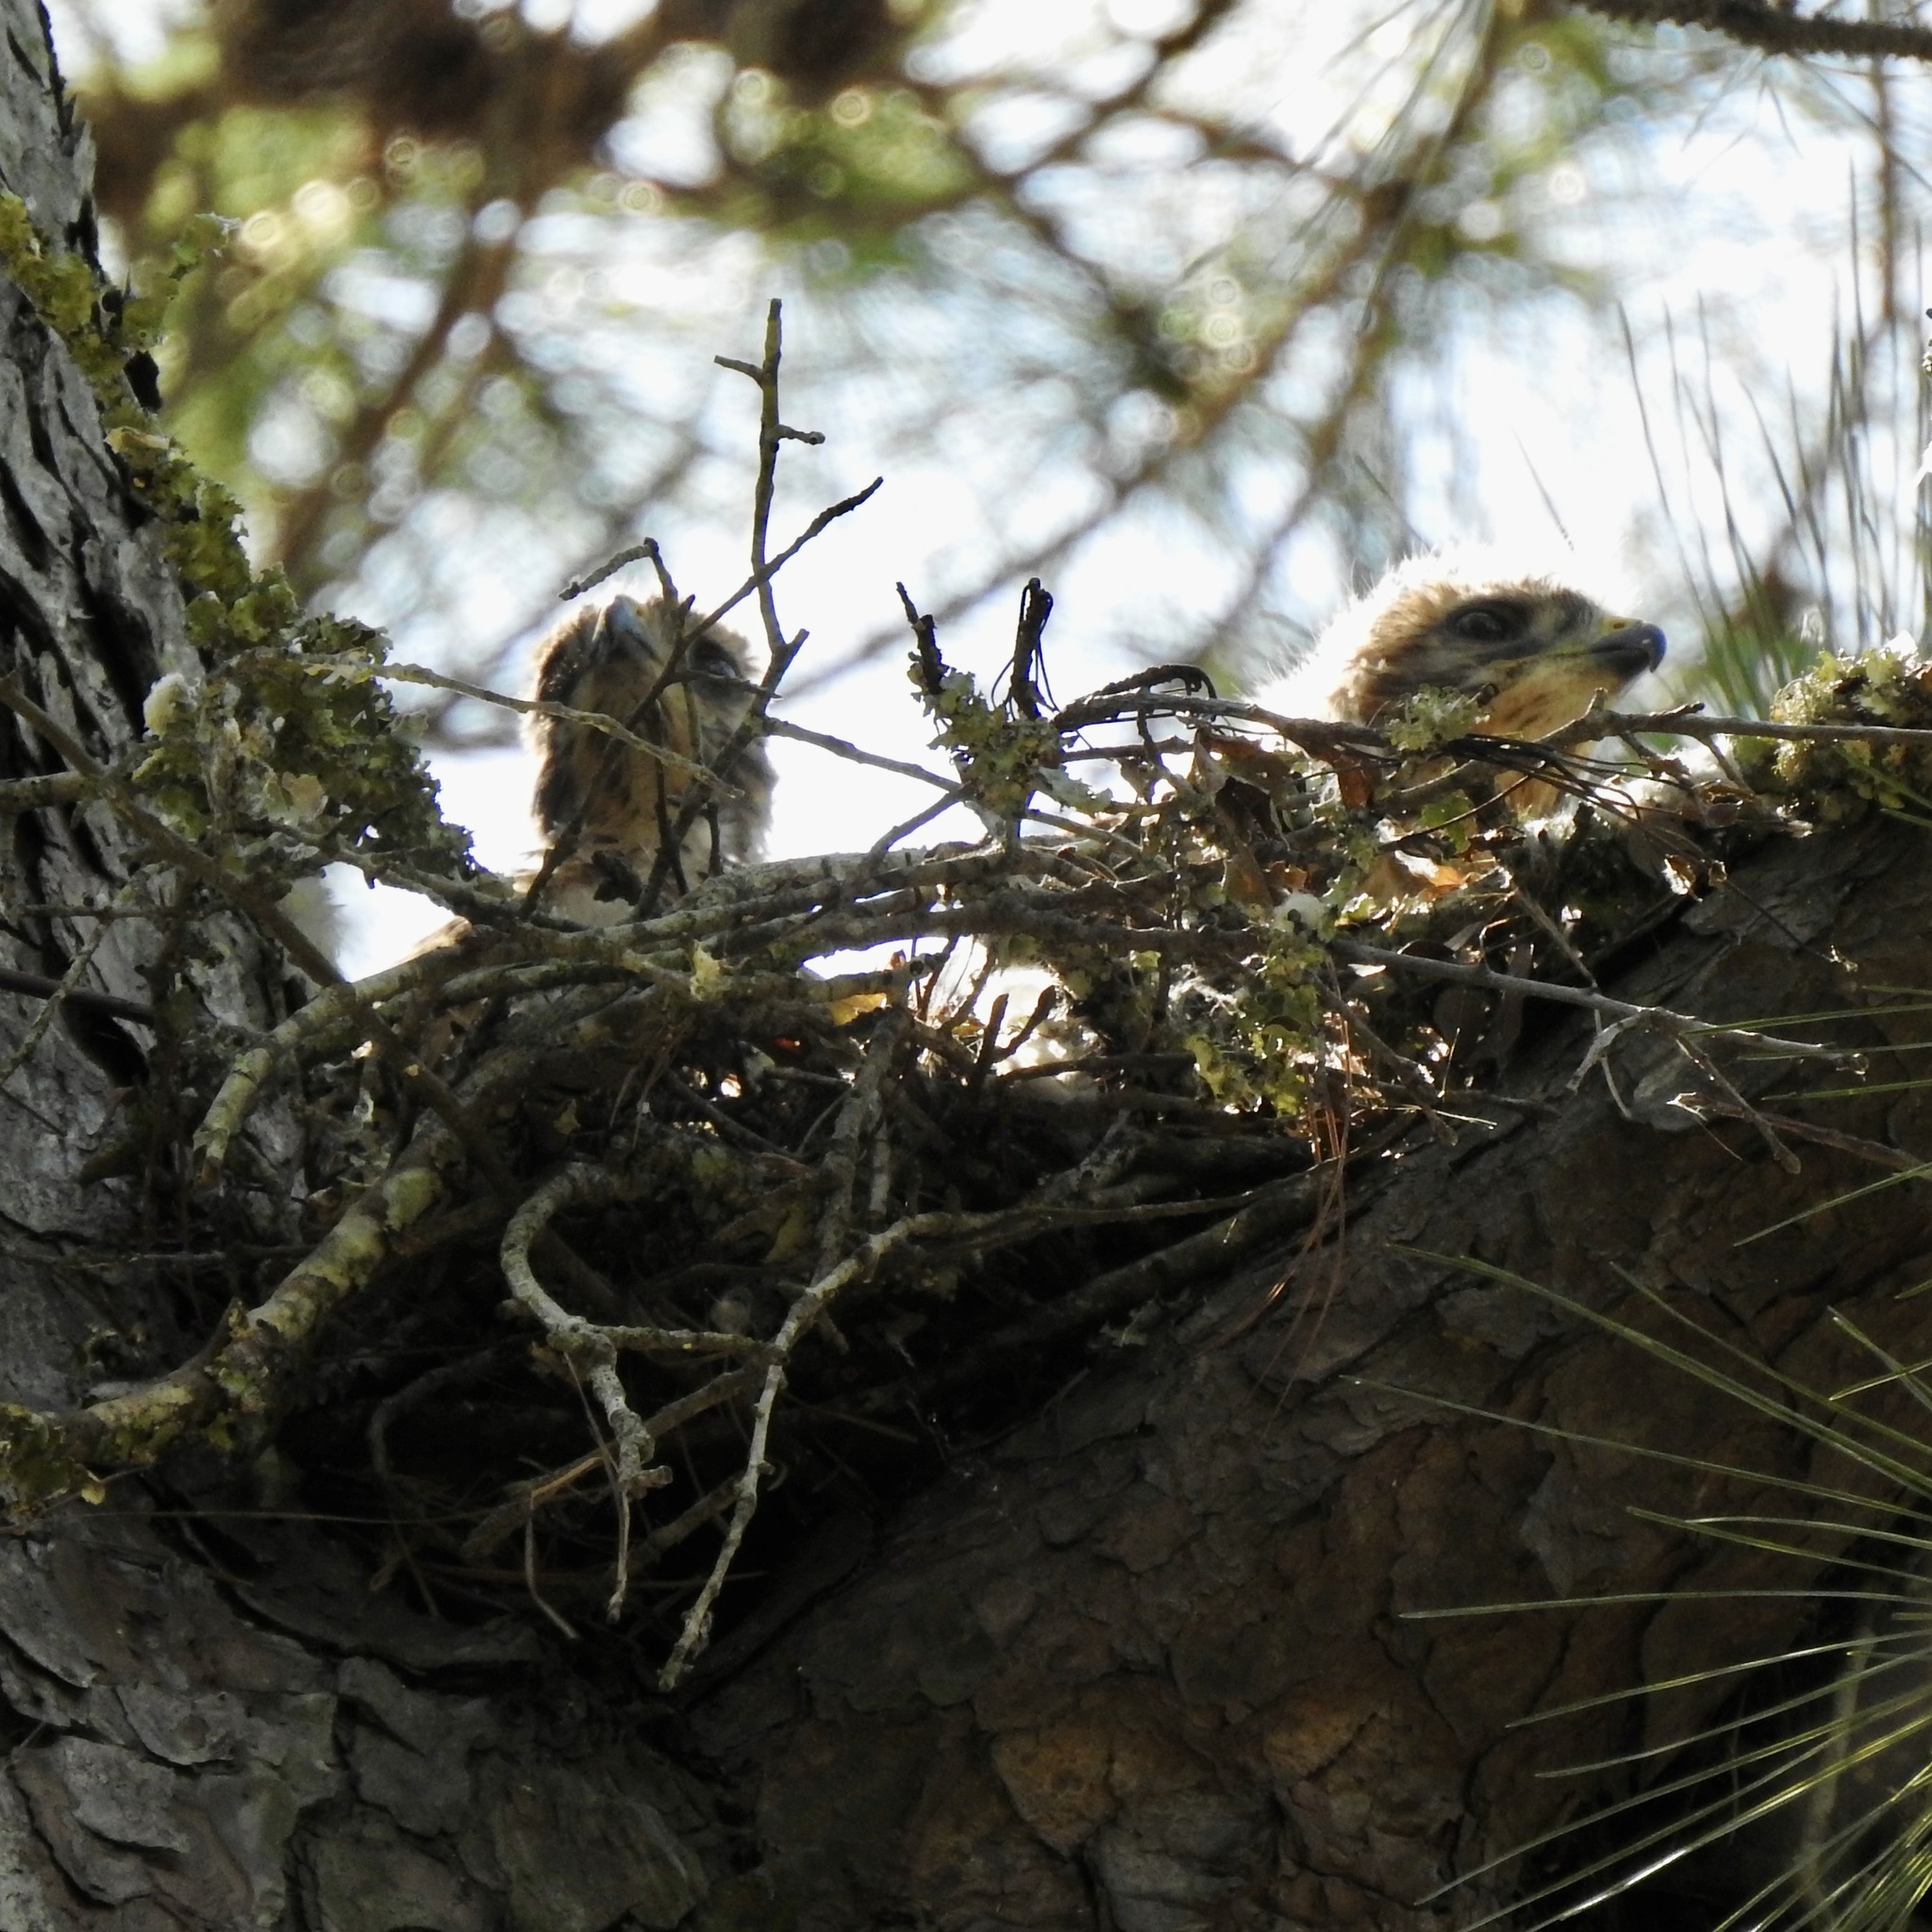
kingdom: Animalia
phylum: Chordata
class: Aves
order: Accipitriformes
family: Accipitridae
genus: Buteo
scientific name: Buteo lineatus
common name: Red-shouldered hawk
